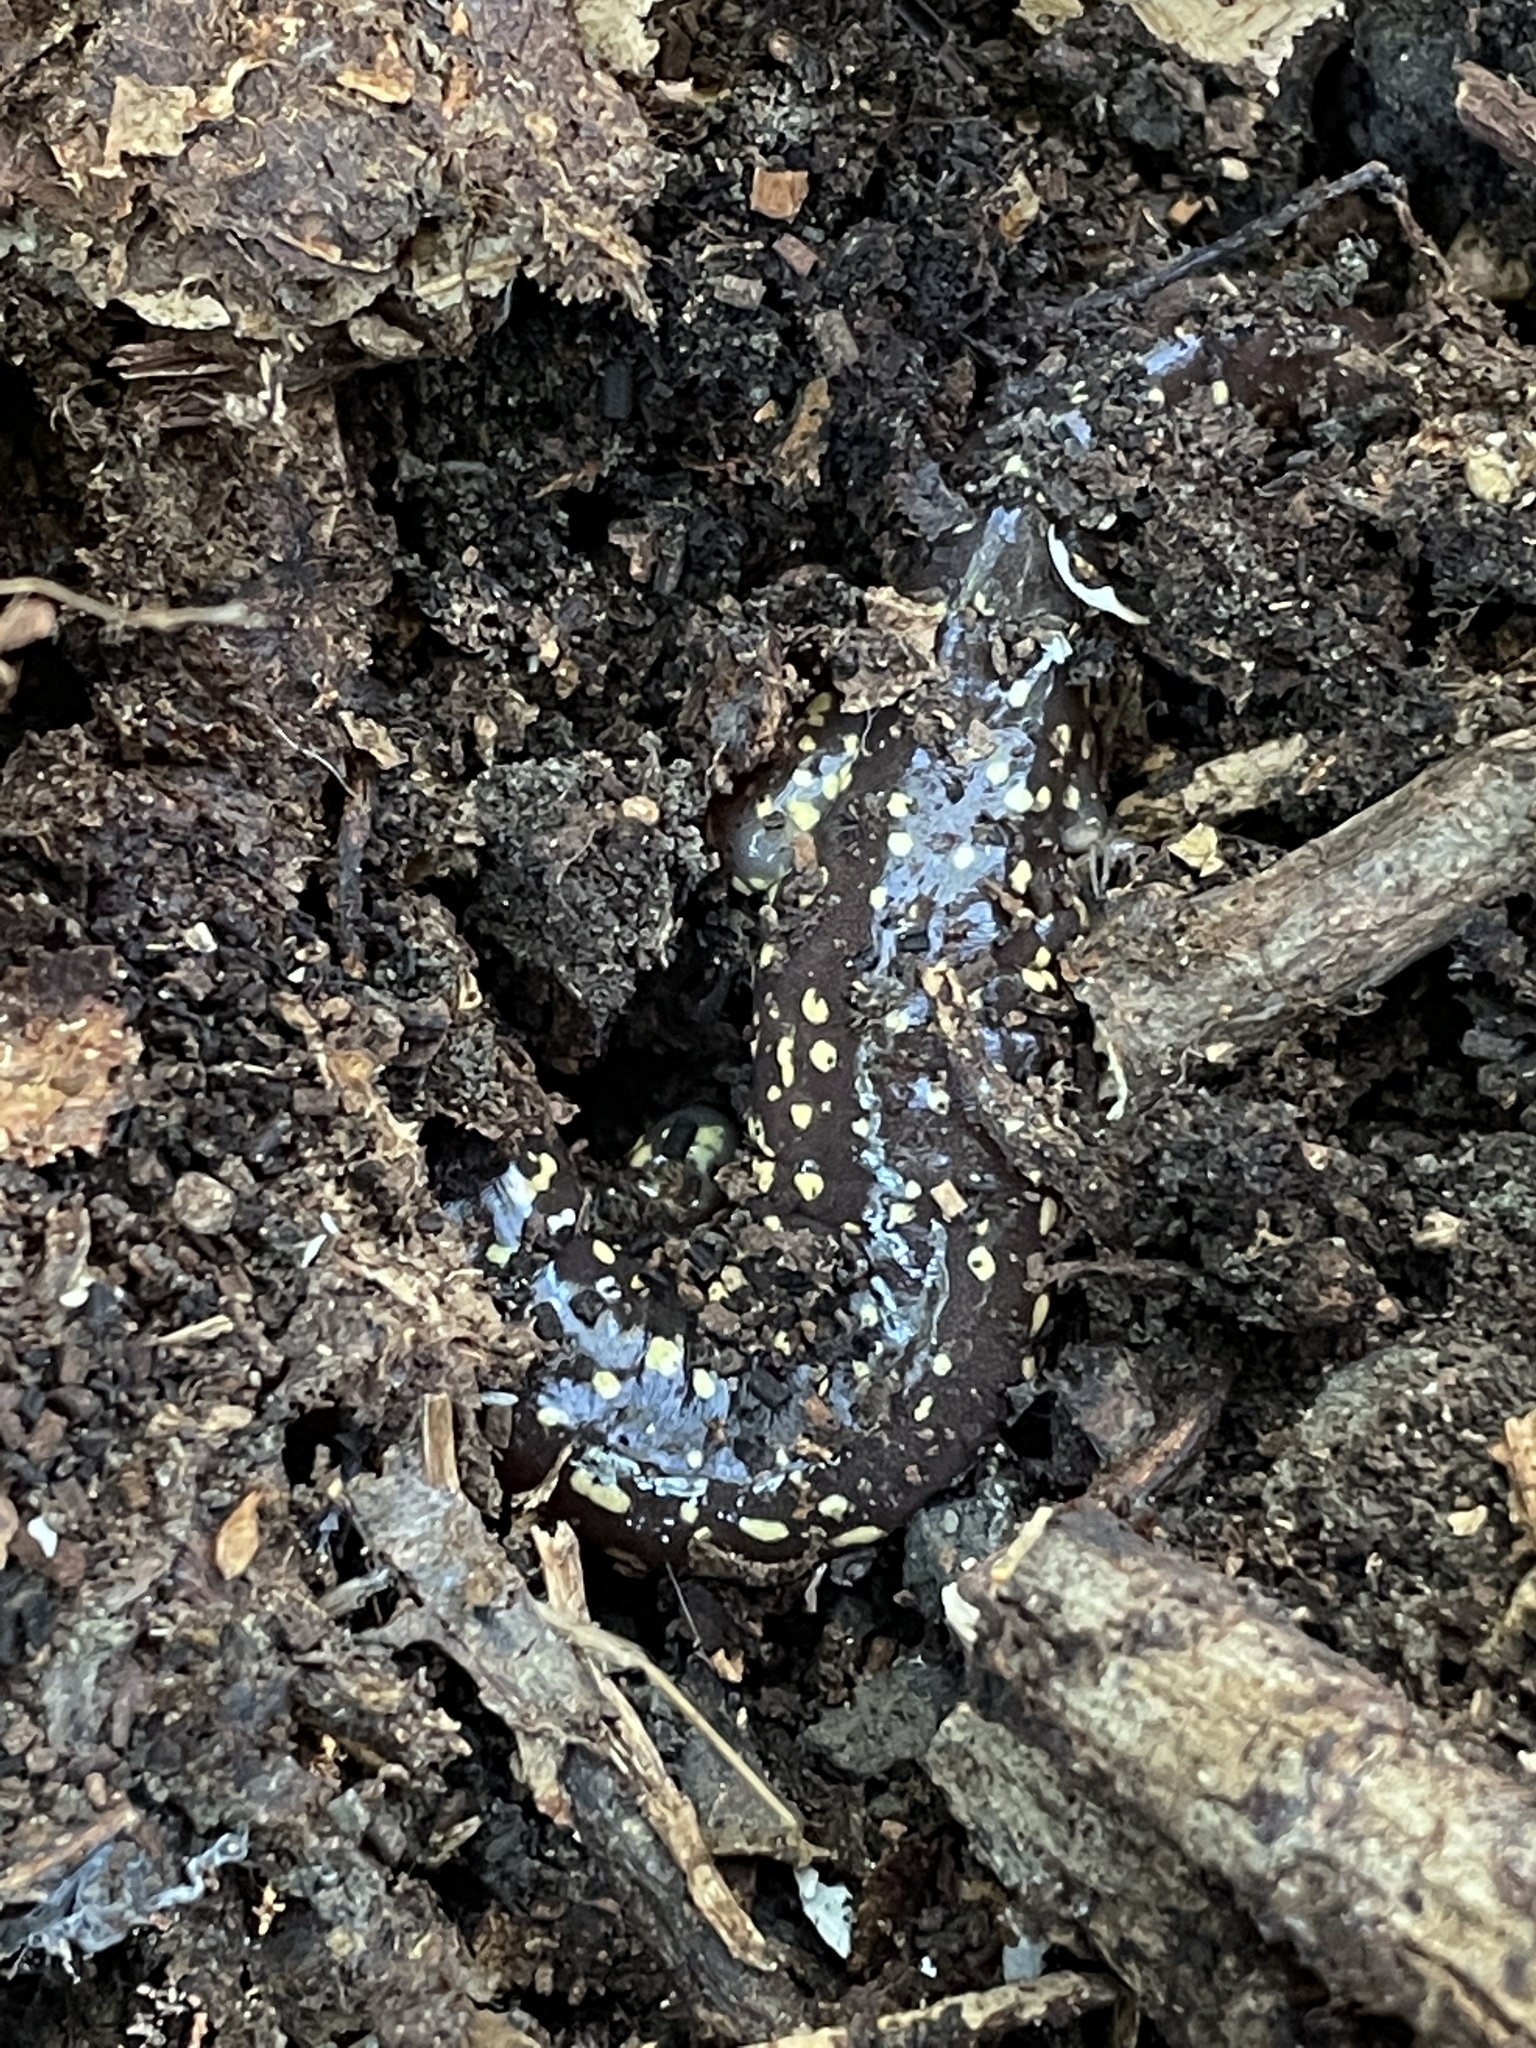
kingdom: Animalia
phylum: Chordata
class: Amphibia
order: Caudata
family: Plethodontidae
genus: Aneides
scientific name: Aneides lugubris
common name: Arboreal salamander
